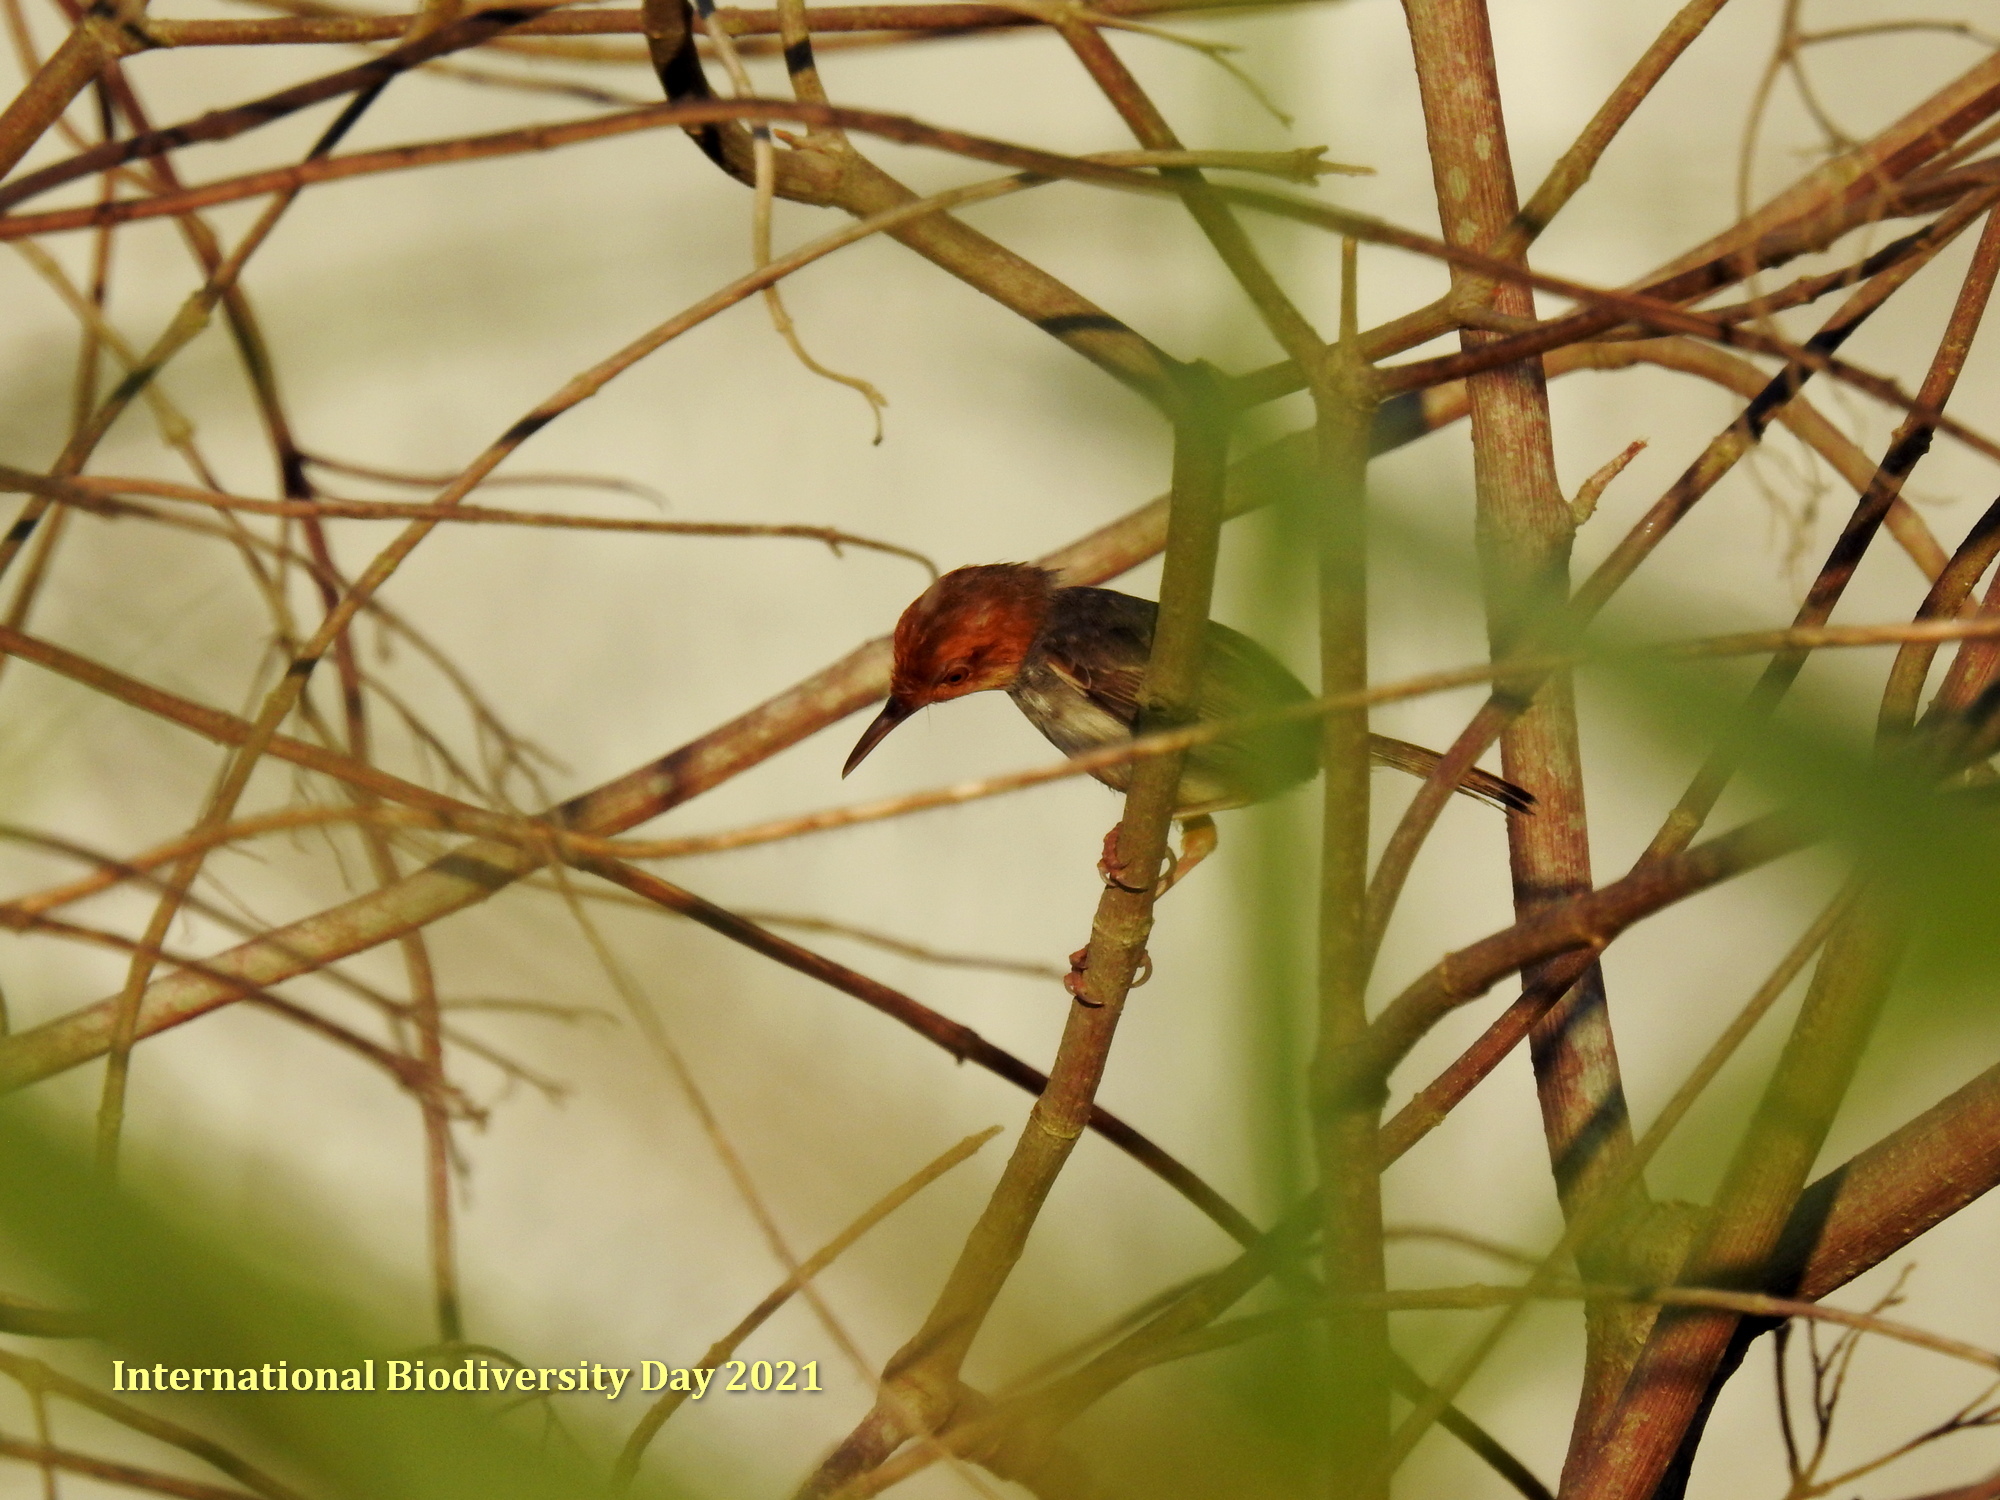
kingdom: Animalia
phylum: Chordata
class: Aves
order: Passeriformes
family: Cisticolidae
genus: Orthotomus
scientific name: Orthotomus ruficeps
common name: Ashy tailorbird
